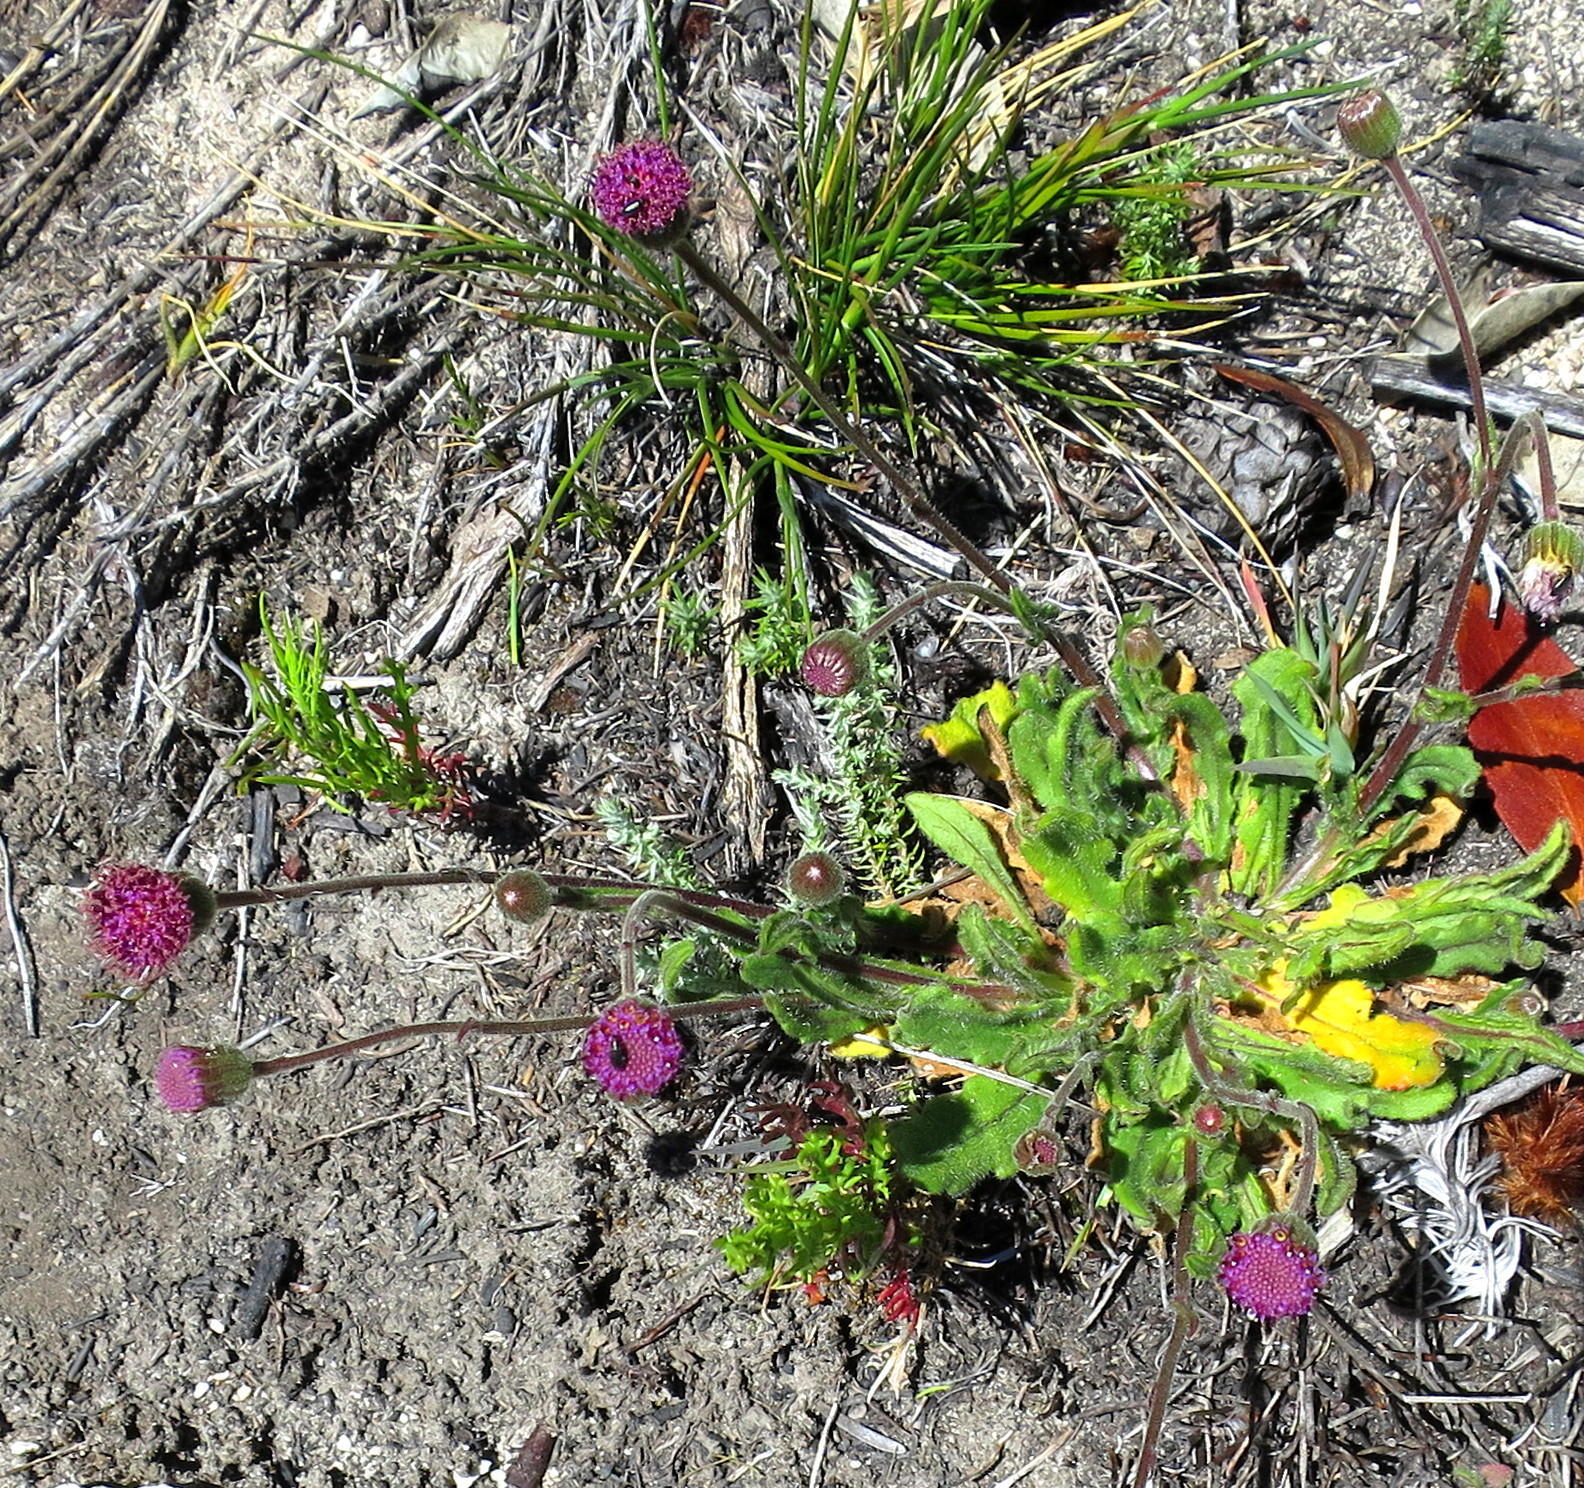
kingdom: Plantae
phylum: Tracheophyta
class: Magnoliopsida
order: Asterales
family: Asteraceae
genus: Senecio
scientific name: Senecio erubescens
